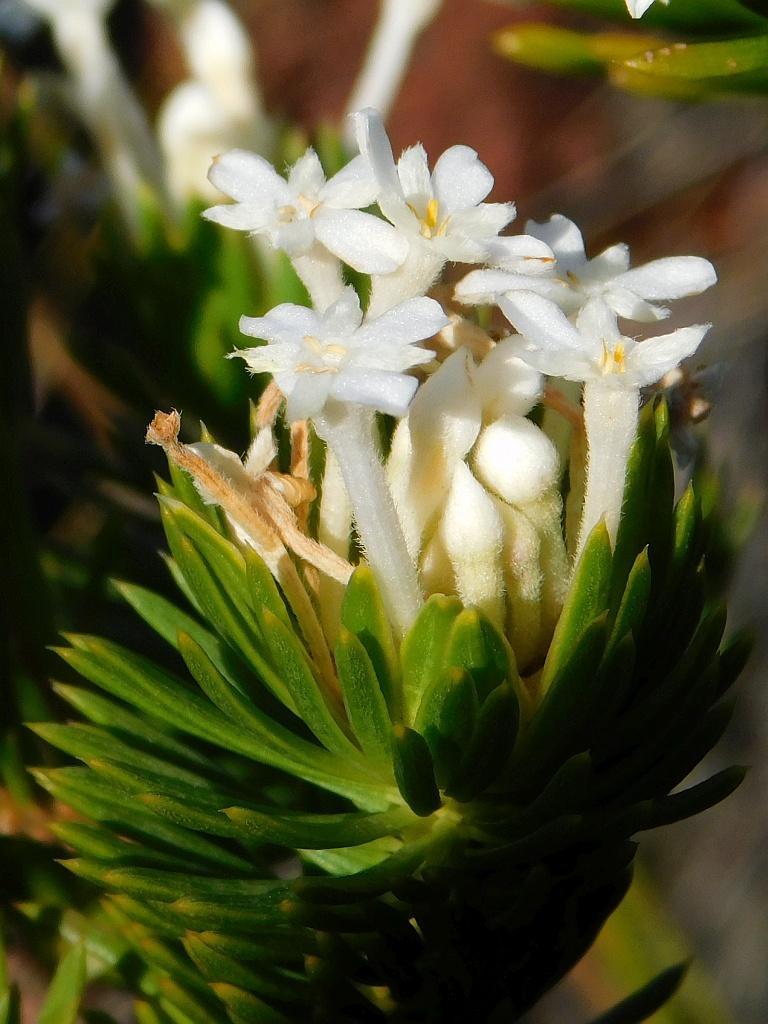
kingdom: Plantae
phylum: Tracheophyta
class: Magnoliopsida
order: Malvales
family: Thymelaeaceae
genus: Gnidia
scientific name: Gnidia pinifolia
